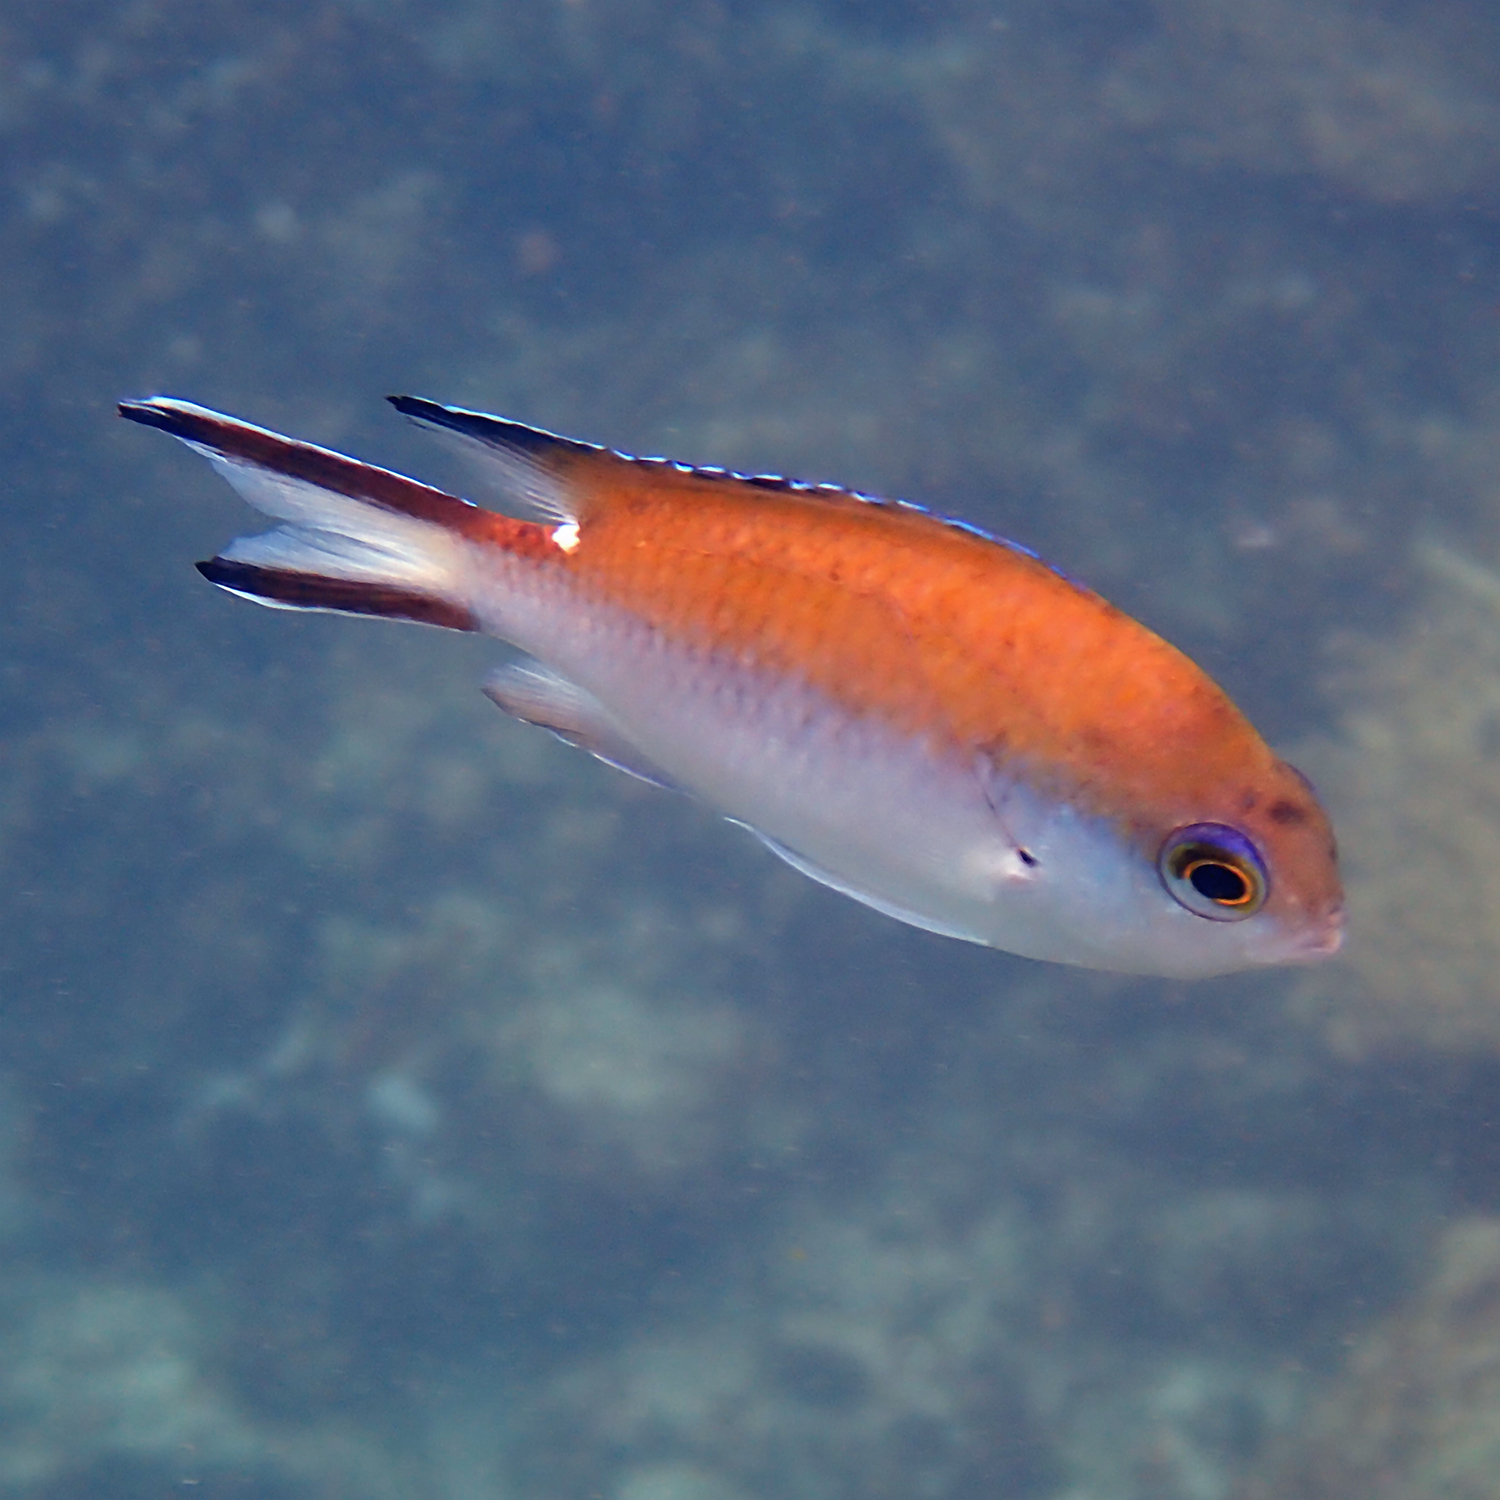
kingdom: Animalia
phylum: Chordata
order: Perciformes
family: Pomacentridae
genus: Chromis
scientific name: Chromis norfolkensis
